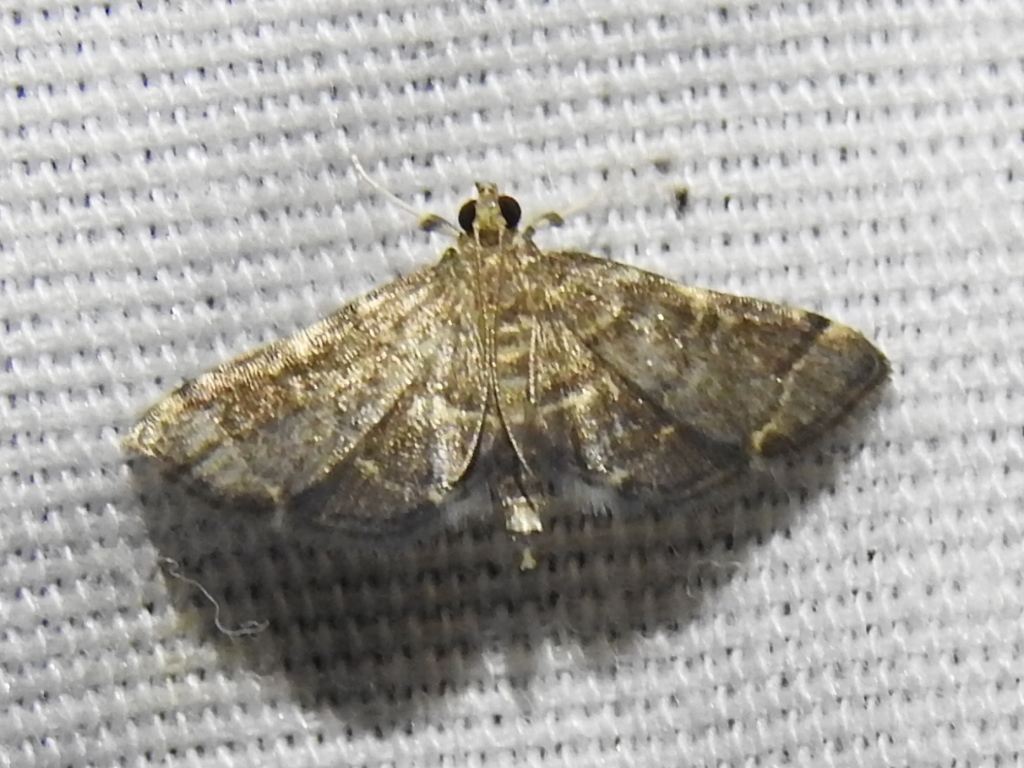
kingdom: Animalia
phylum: Arthropoda
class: Insecta
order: Lepidoptera
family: Crambidae
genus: Anageshna
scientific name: Anageshna primordialis
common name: Yellow-spotted webworm moth
